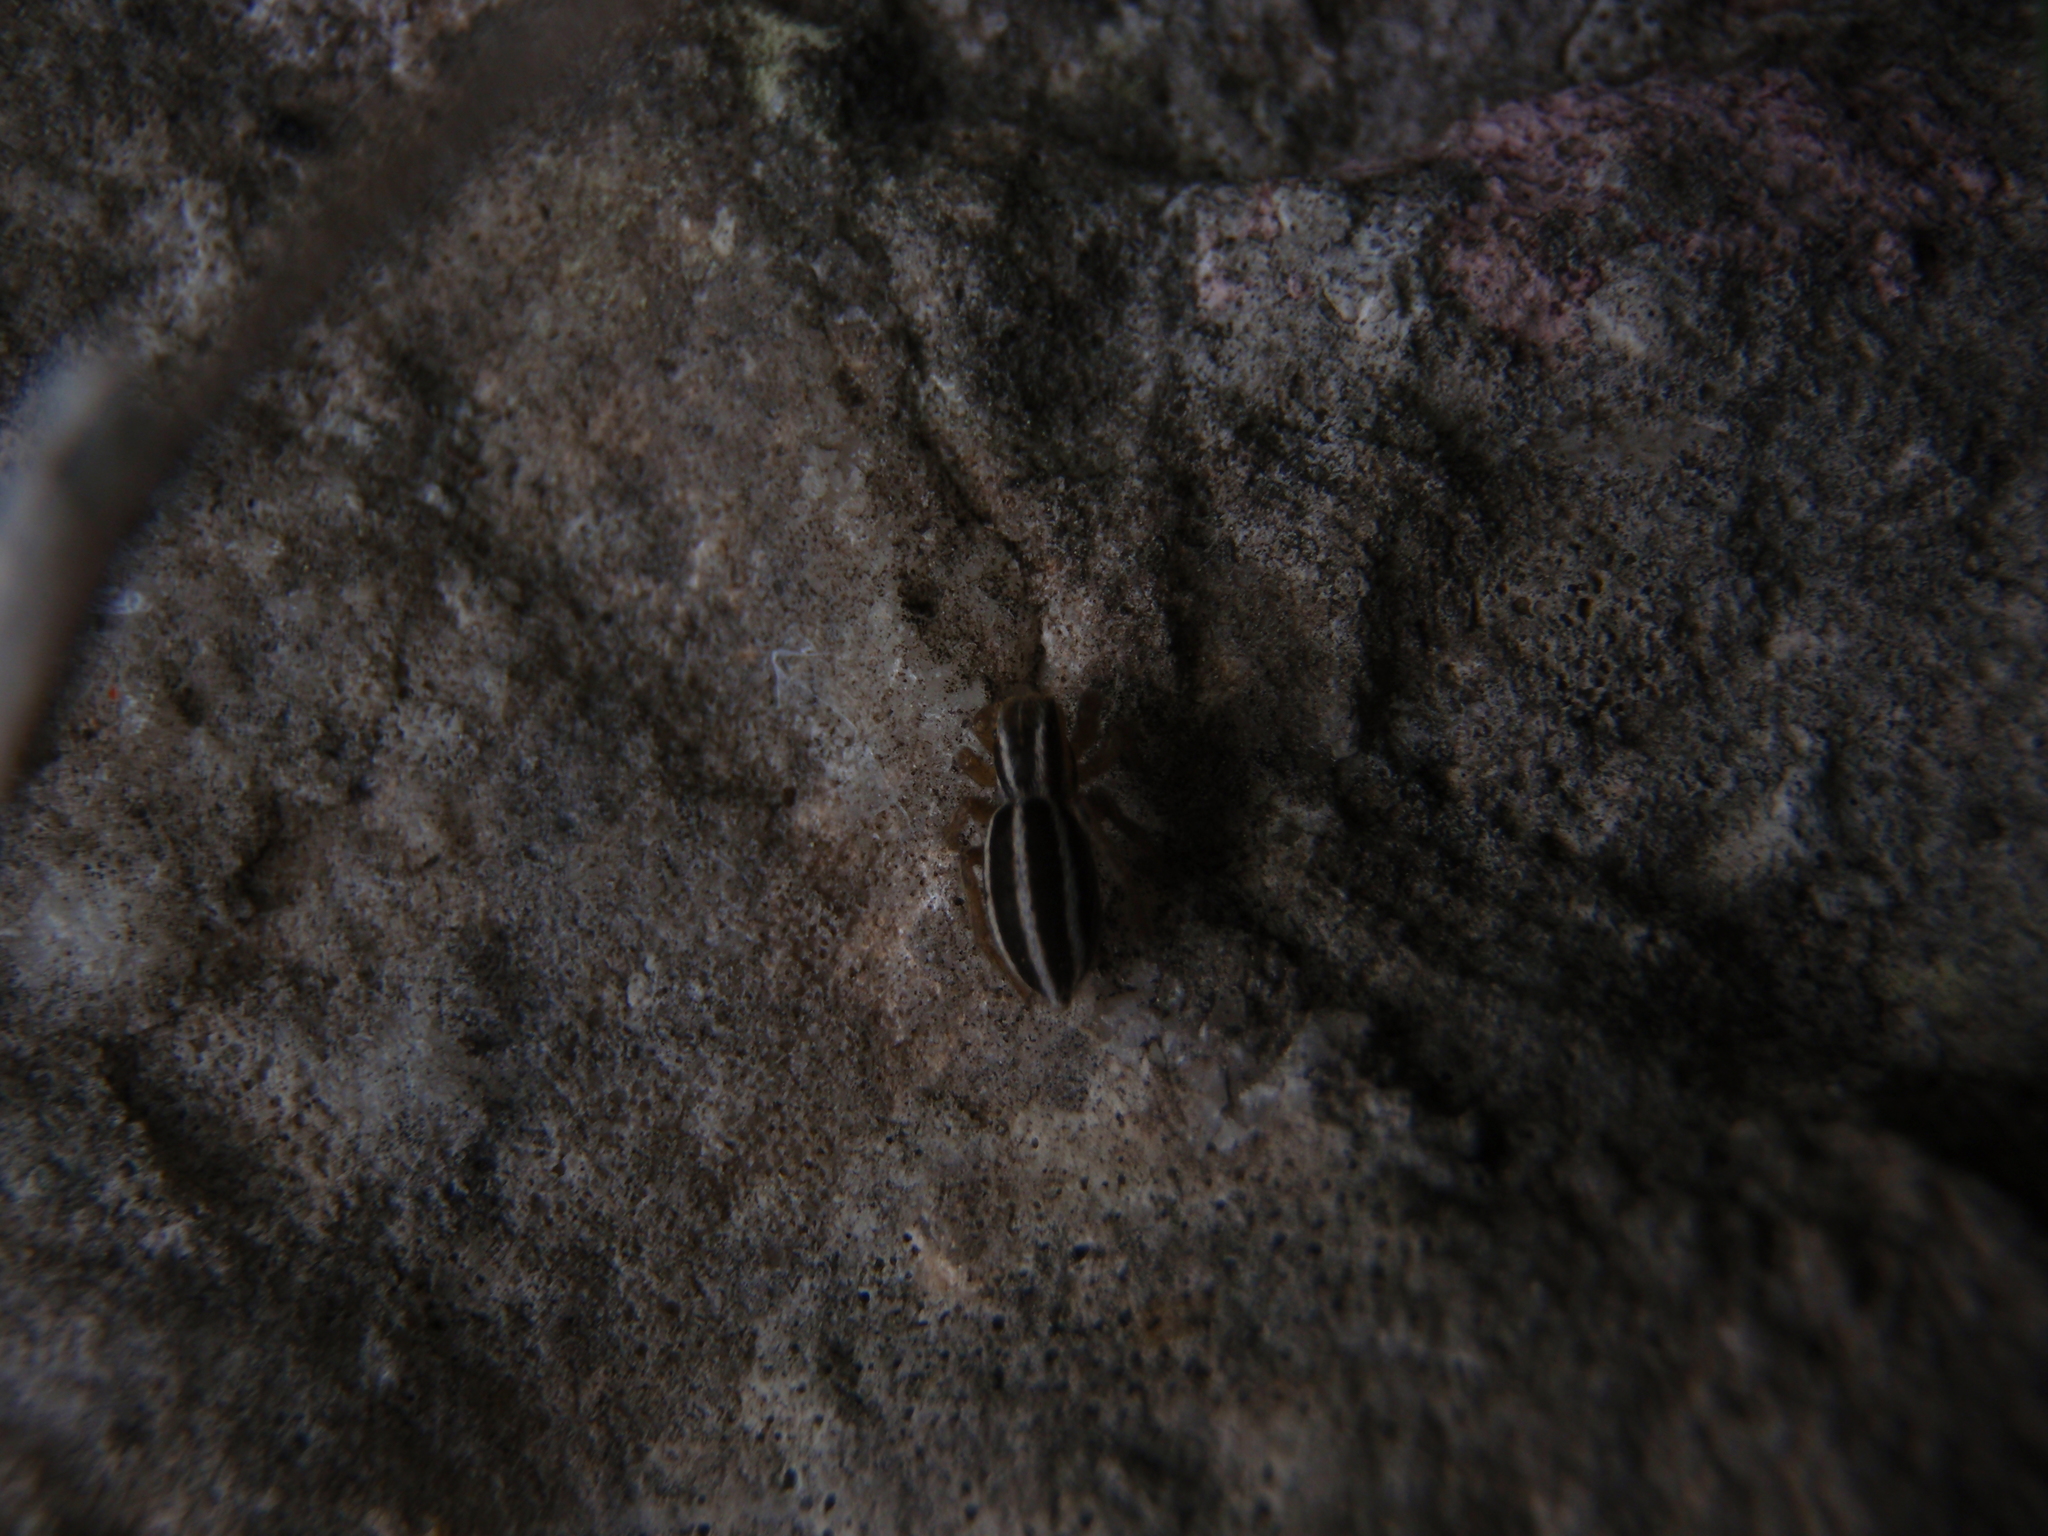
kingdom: Animalia
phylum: Arthropoda
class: Arachnida
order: Araneae
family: Salticidae
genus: Phlegra
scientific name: Phlegra bresnieri
